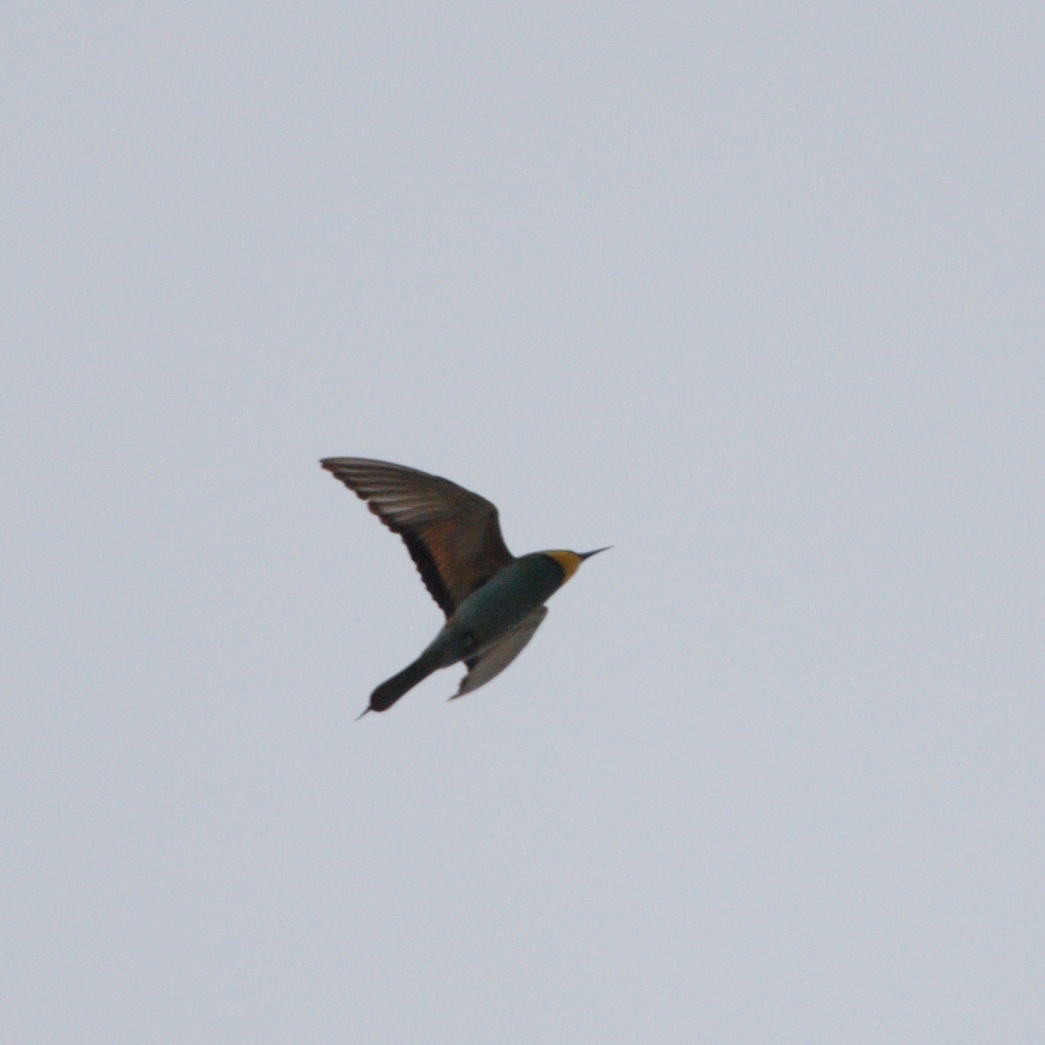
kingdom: Animalia
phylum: Chordata
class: Aves
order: Coraciiformes
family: Meropidae
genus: Merops
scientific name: Merops apiaster
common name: European bee-eater
